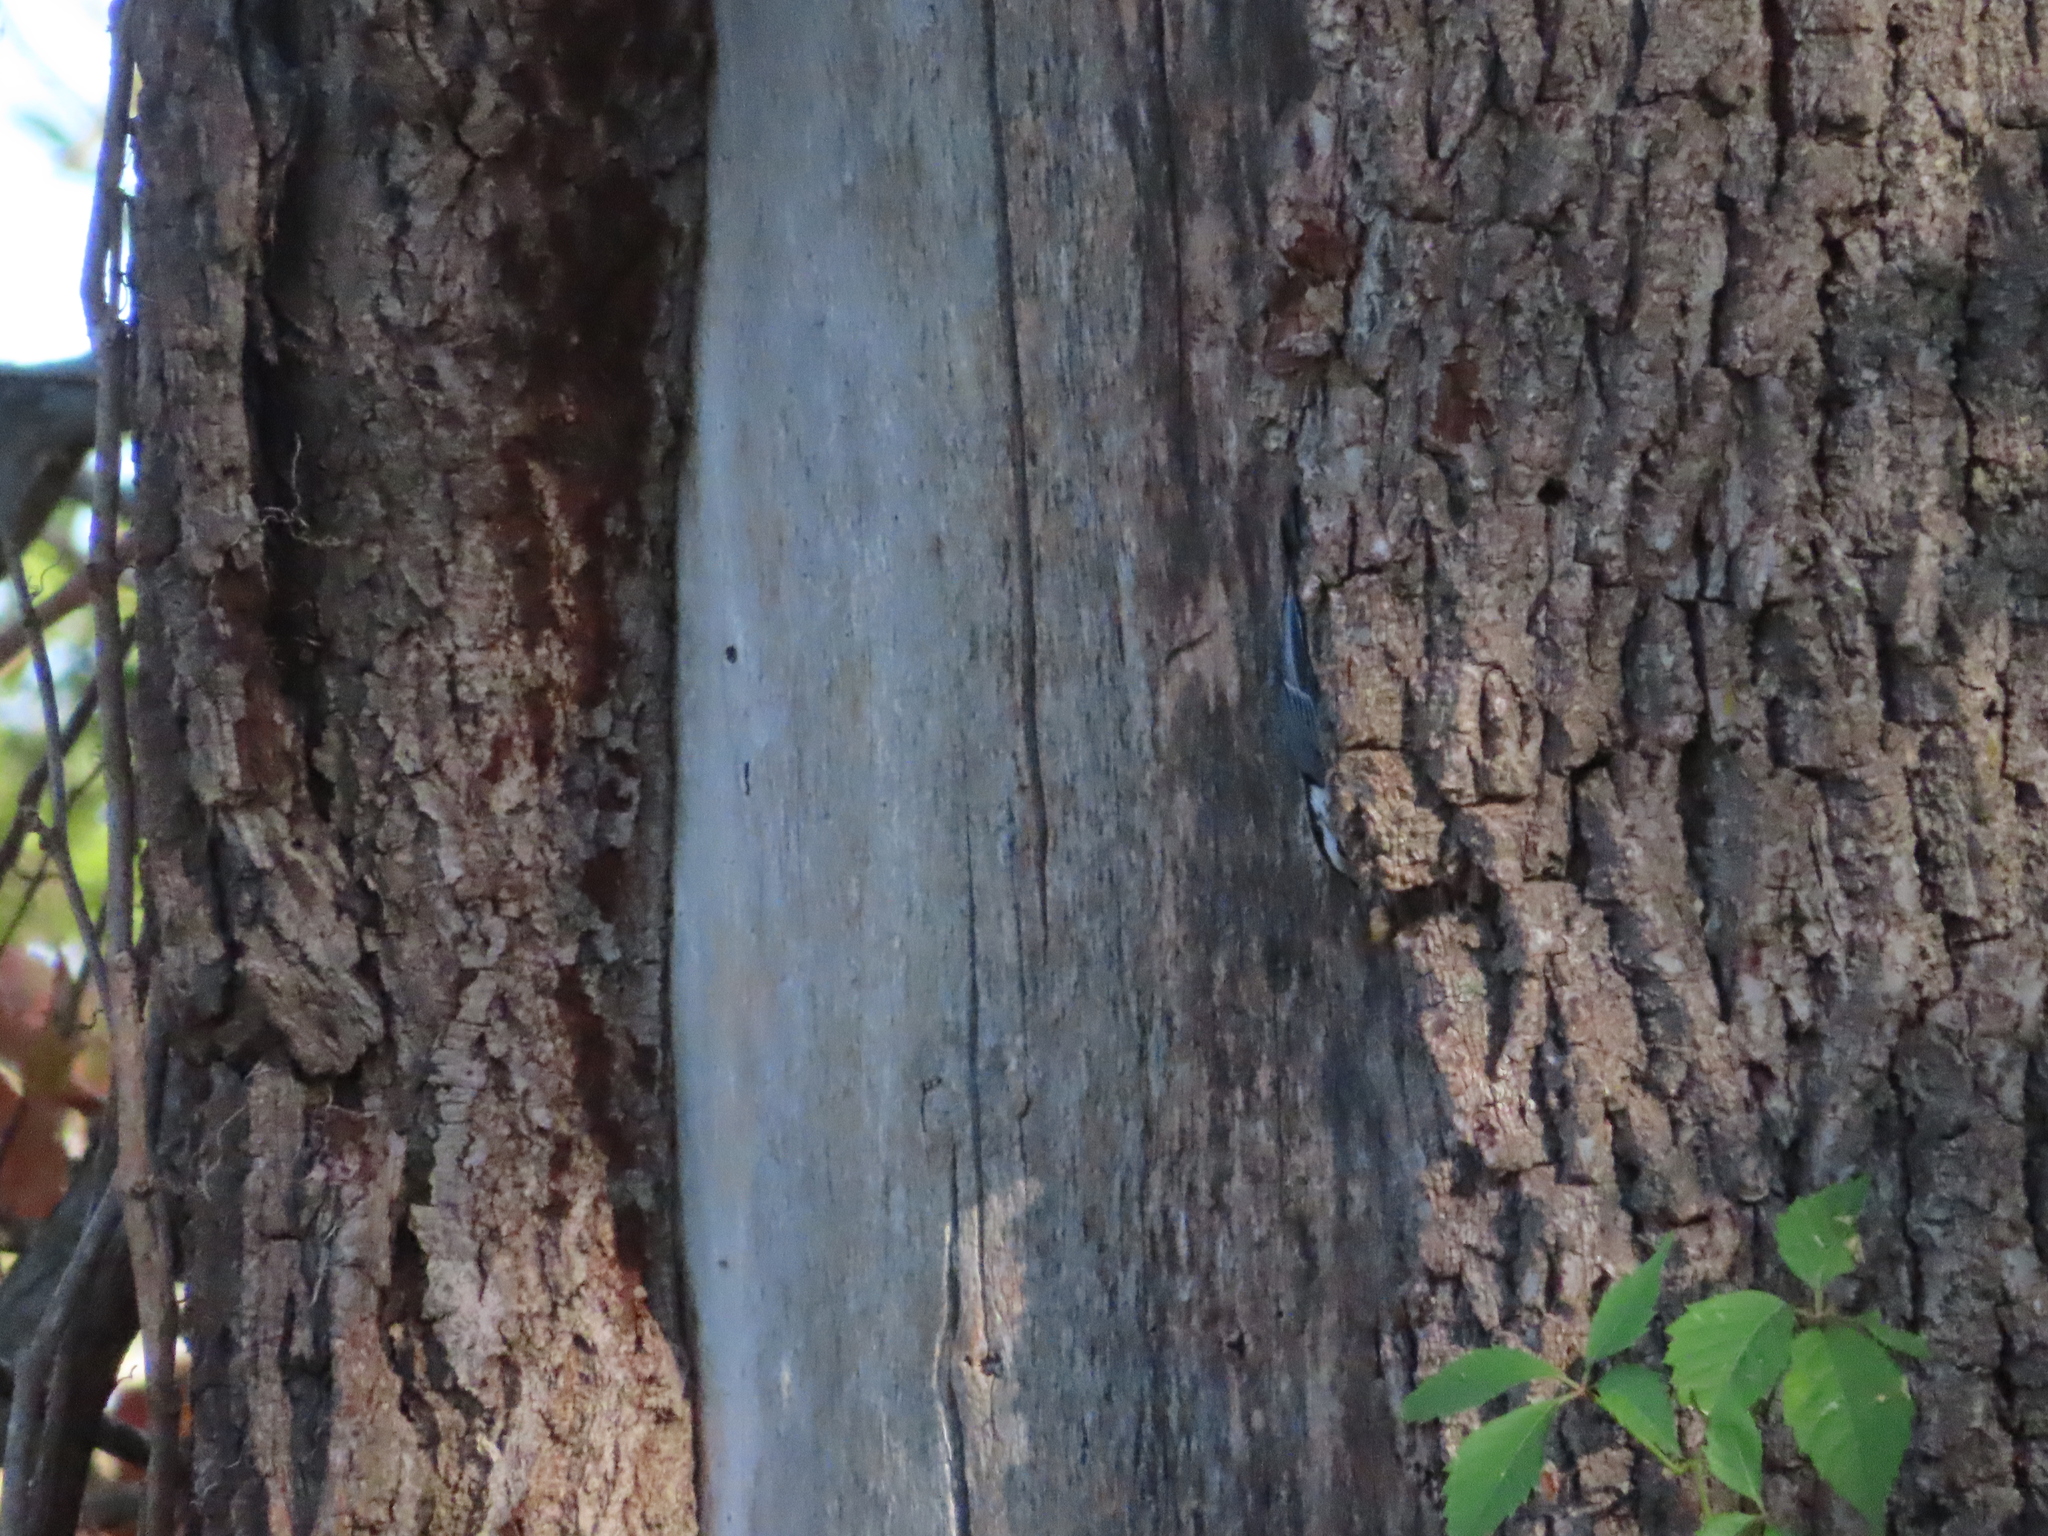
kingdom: Animalia
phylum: Chordata
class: Aves
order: Passeriformes
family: Sittidae
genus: Sitta
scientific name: Sitta carolinensis
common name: White-breasted nuthatch
